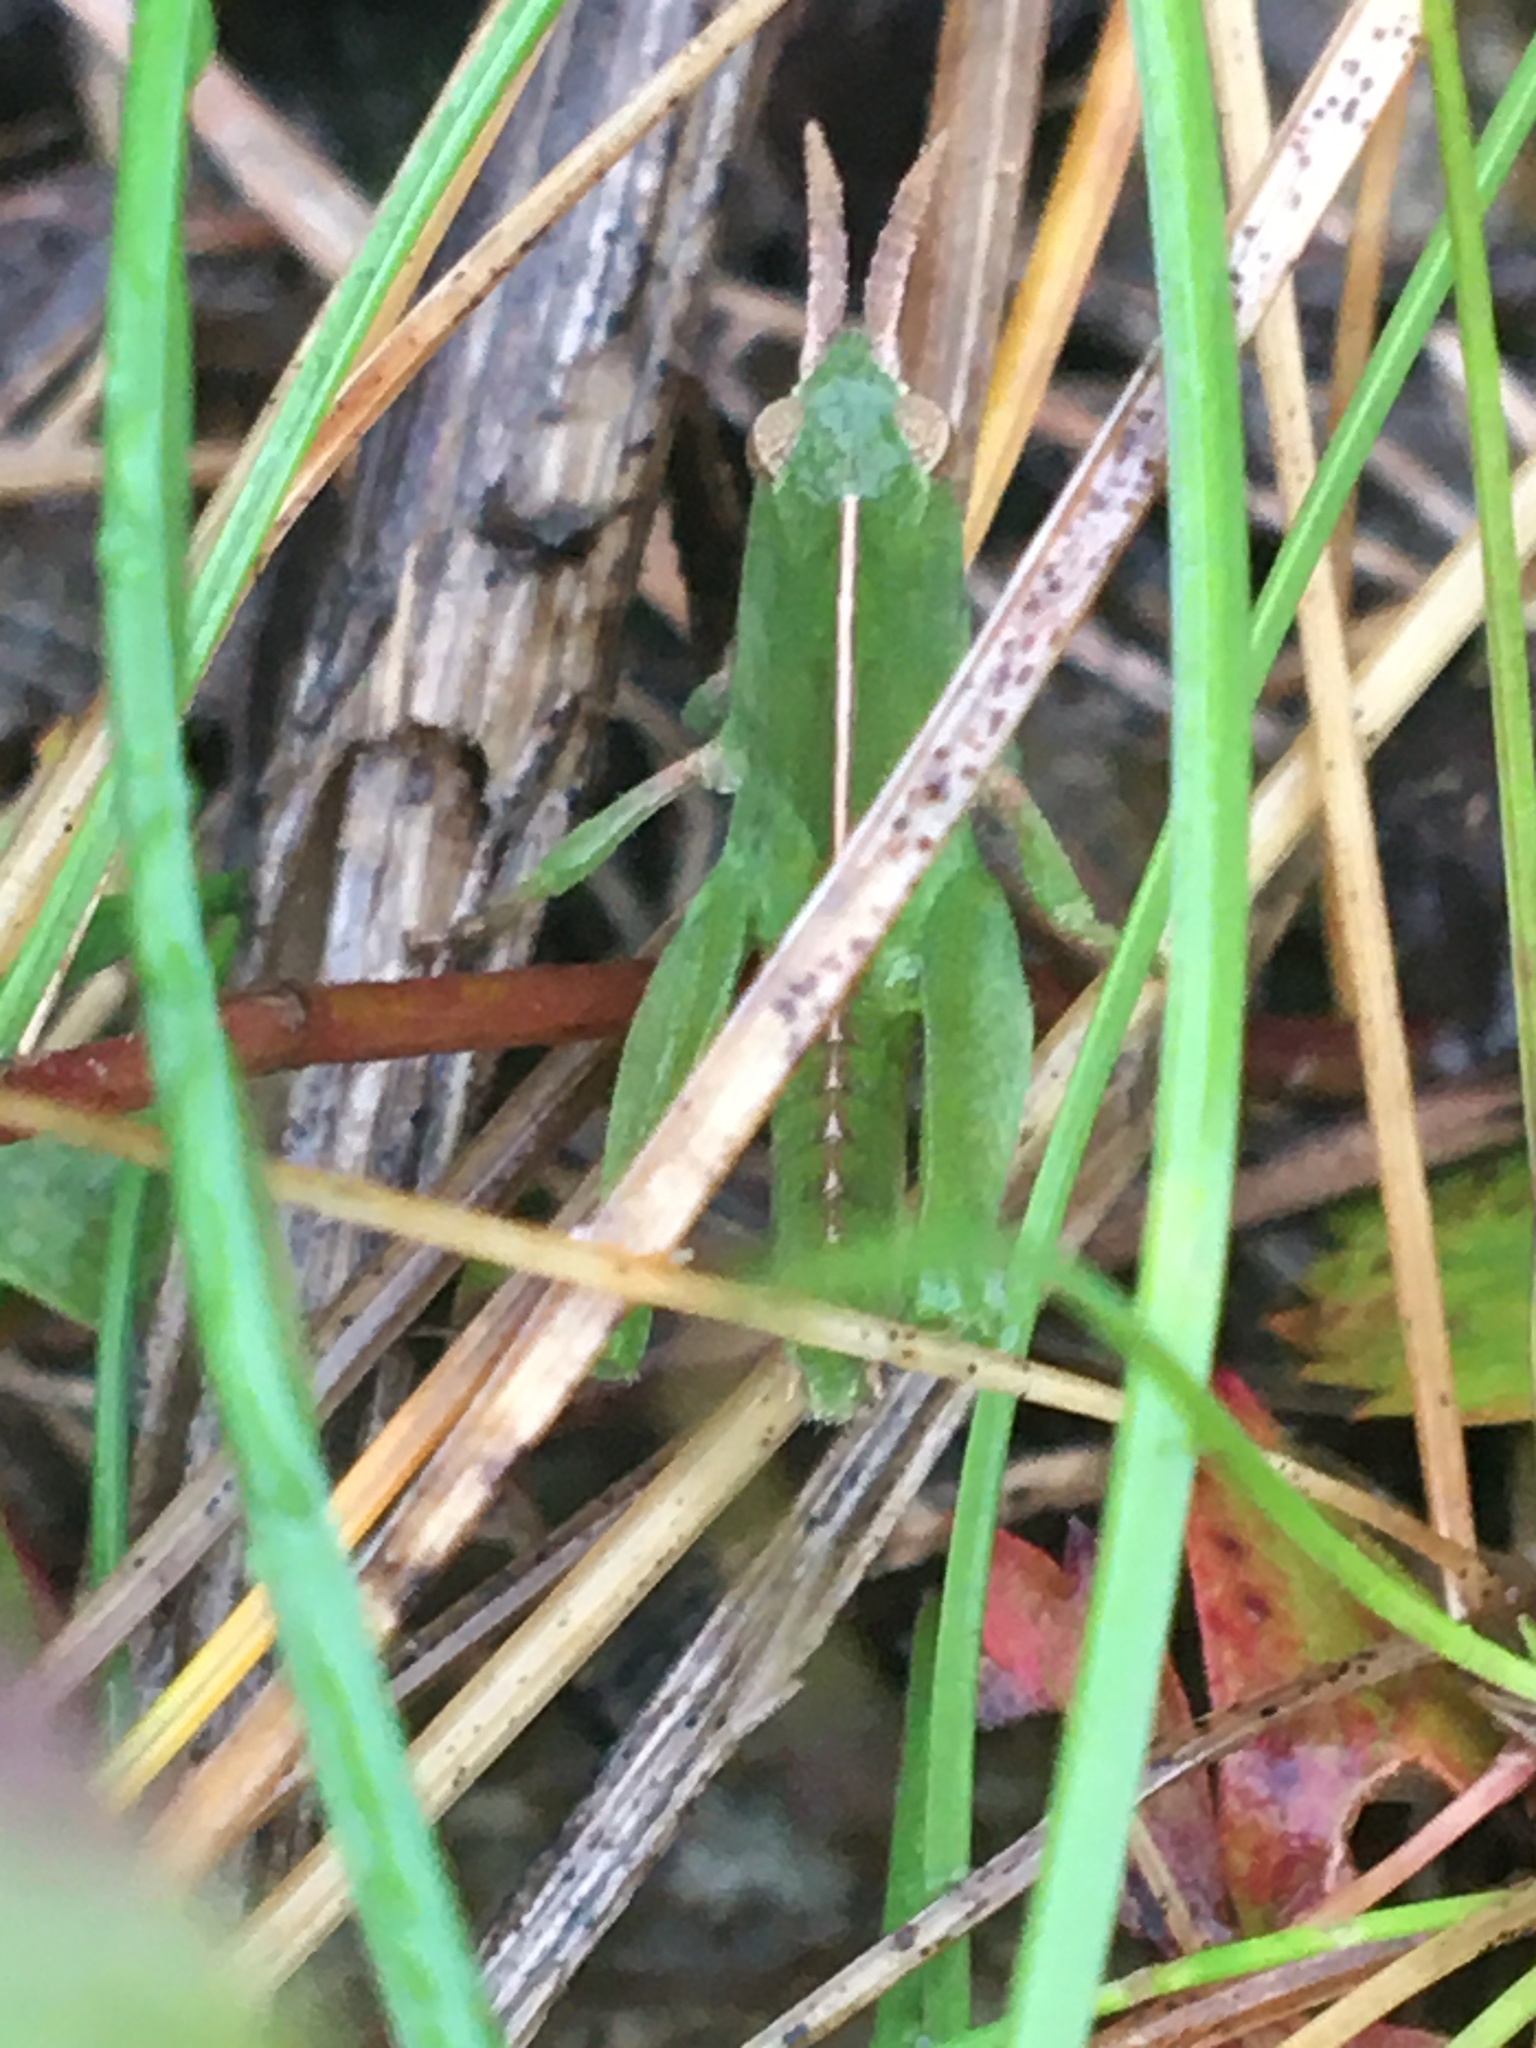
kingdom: Animalia
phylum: Arthropoda
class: Insecta
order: Orthoptera
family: Acrididae
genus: Chortophaga
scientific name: Chortophaga viridifasciata
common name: Green-striped grasshopper
